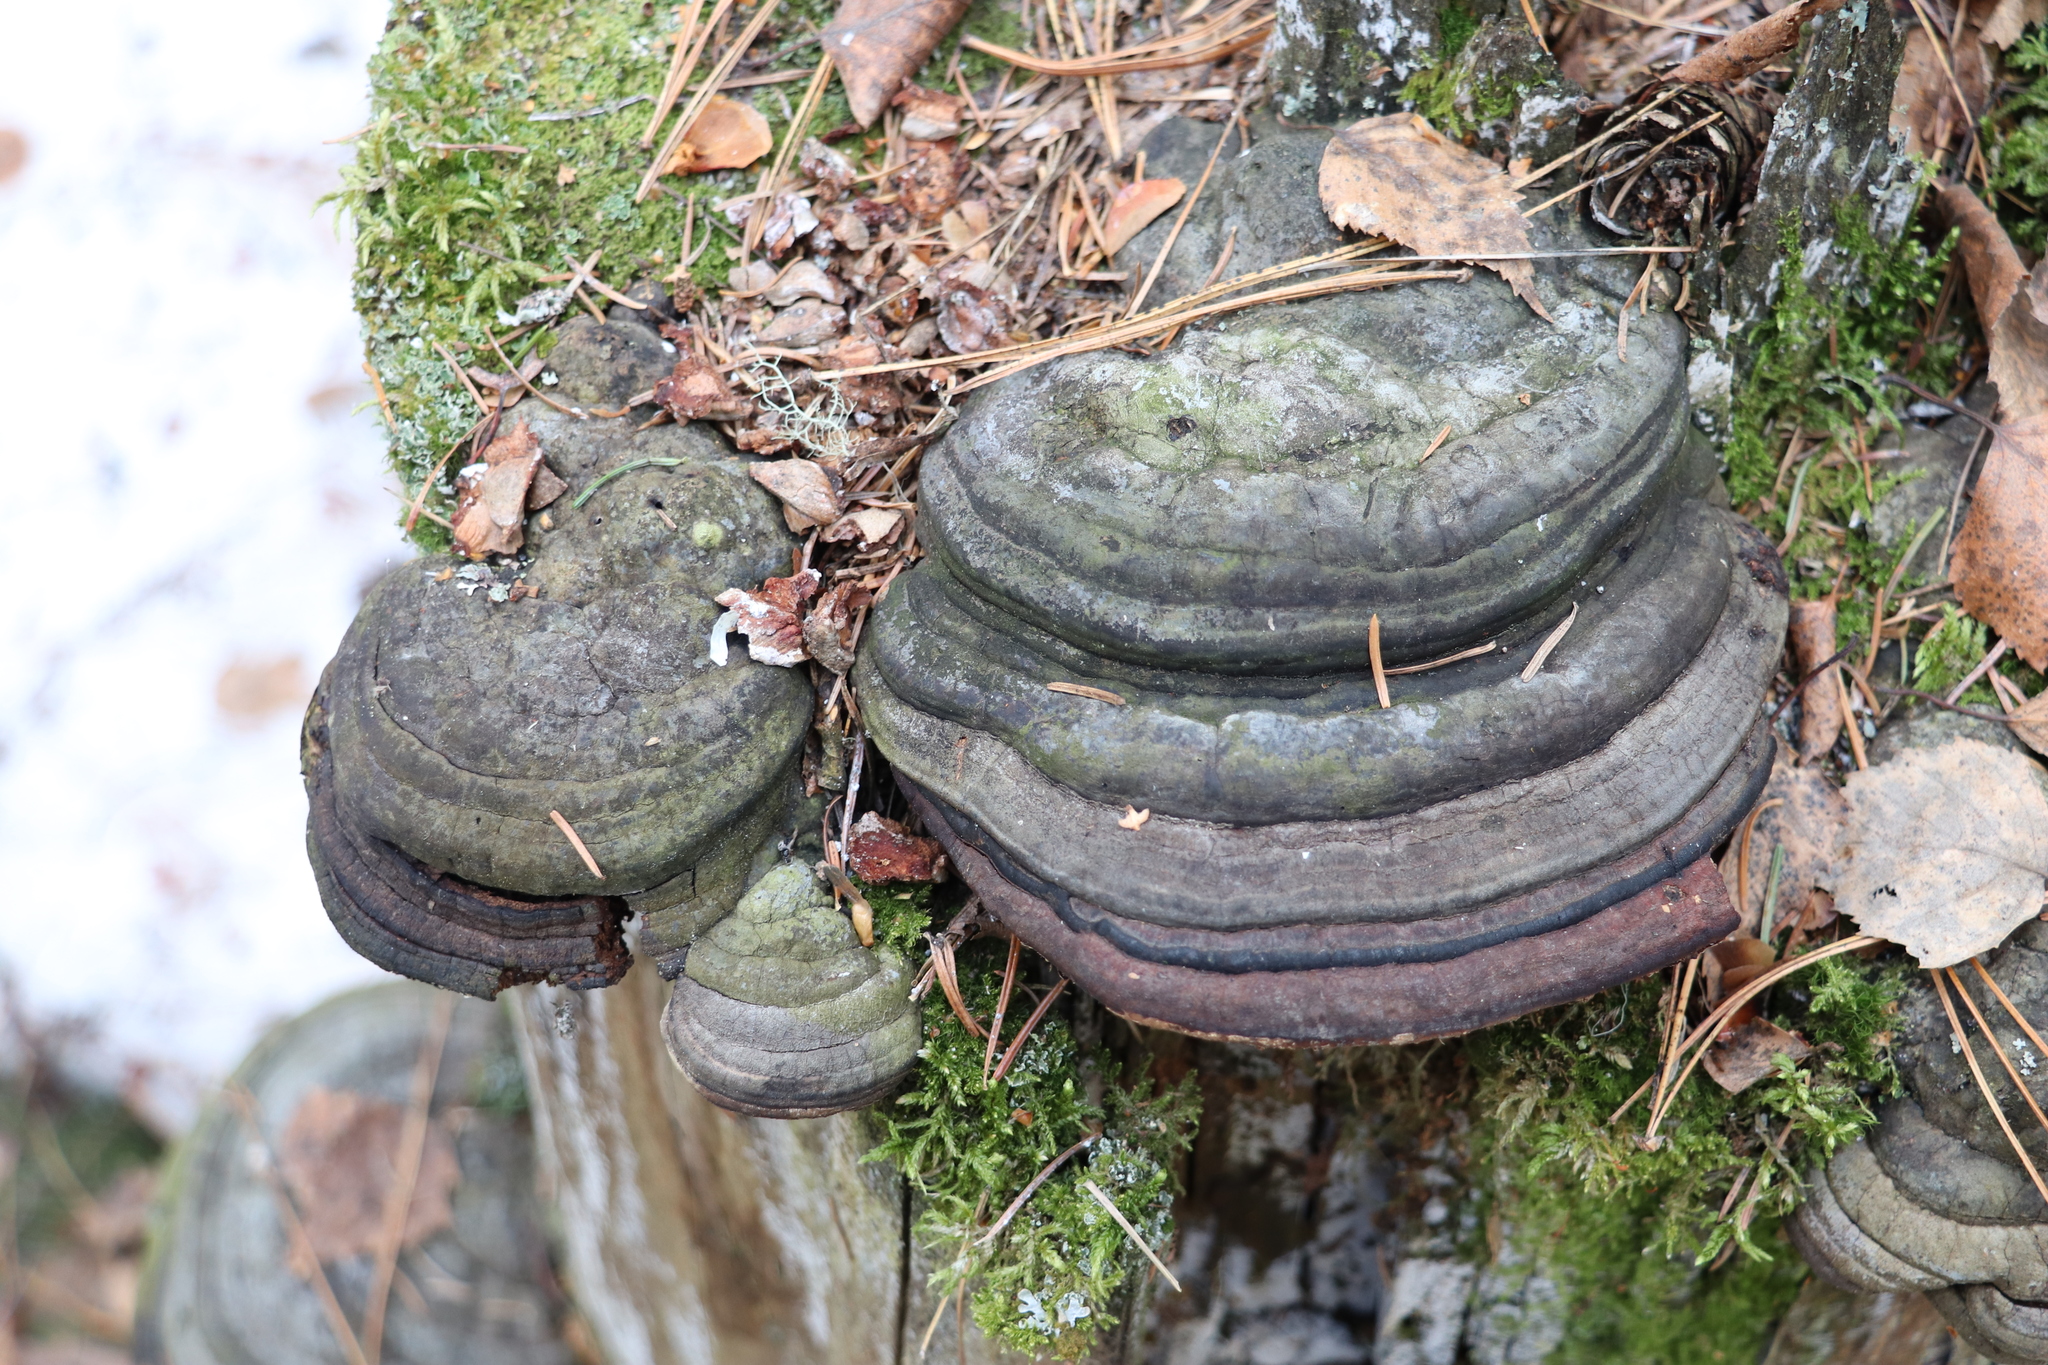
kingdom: Fungi
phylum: Basidiomycota
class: Agaricomycetes
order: Polyporales
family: Fomitopsidaceae
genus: Fomitopsis
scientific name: Fomitopsis pinicola
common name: Red-belted bracket
